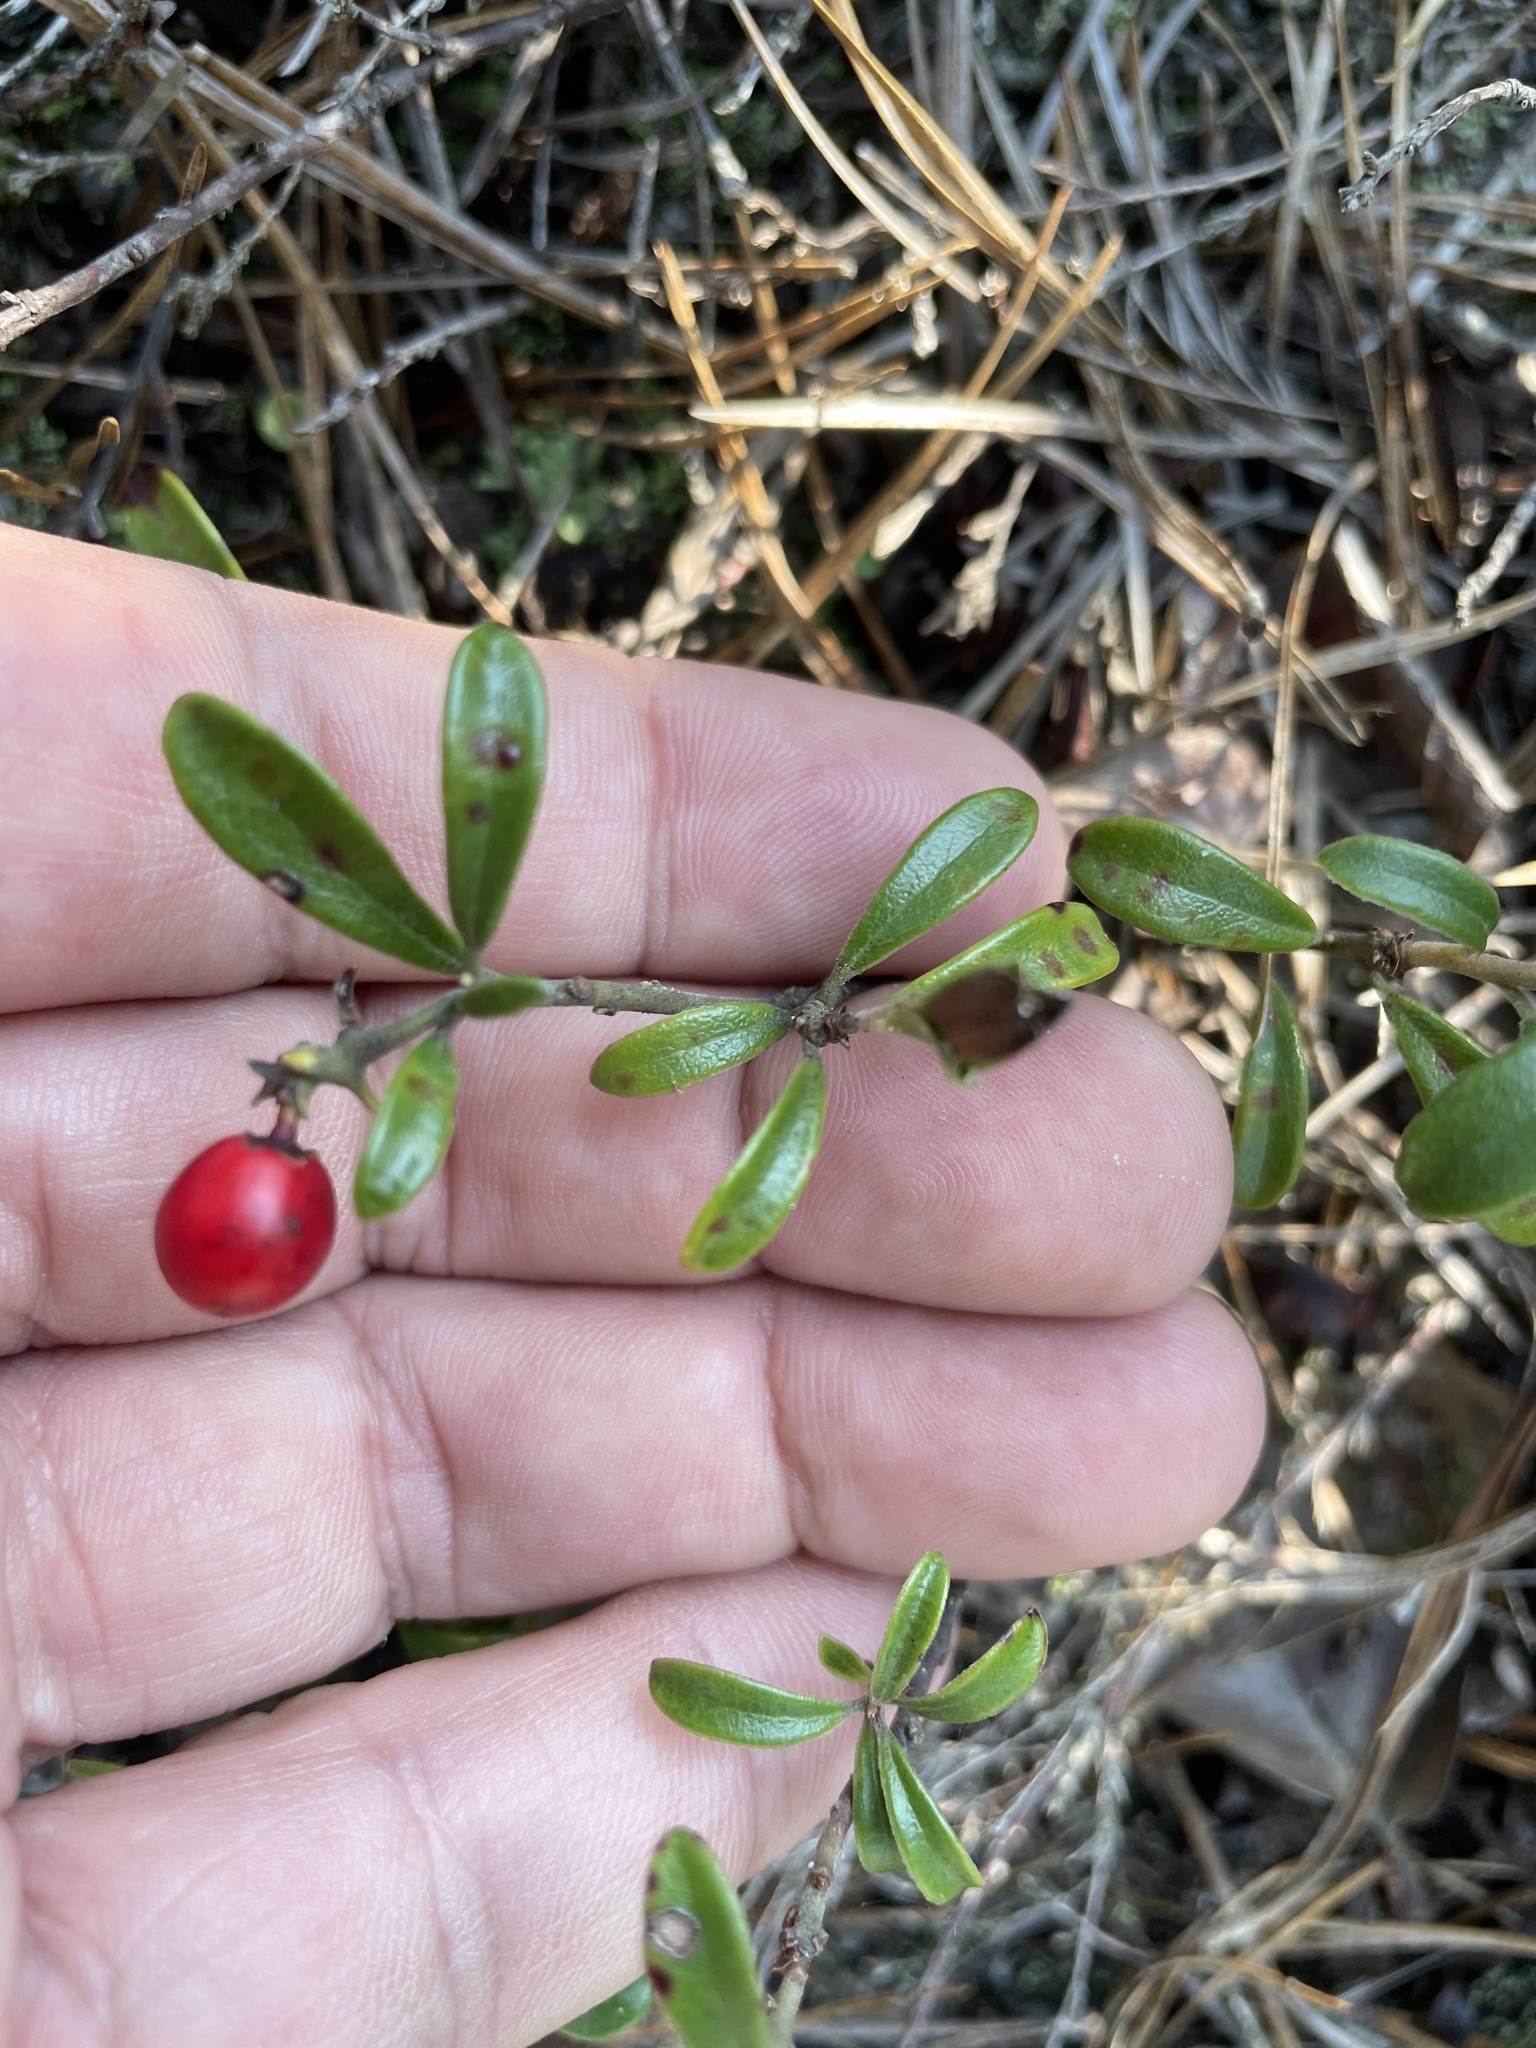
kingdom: Plantae
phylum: Tracheophyta
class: Magnoliopsida
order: Ericales
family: Ericaceae
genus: Arctostaphylos
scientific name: Arctostaphylos uva-ursi
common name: Bearberry
